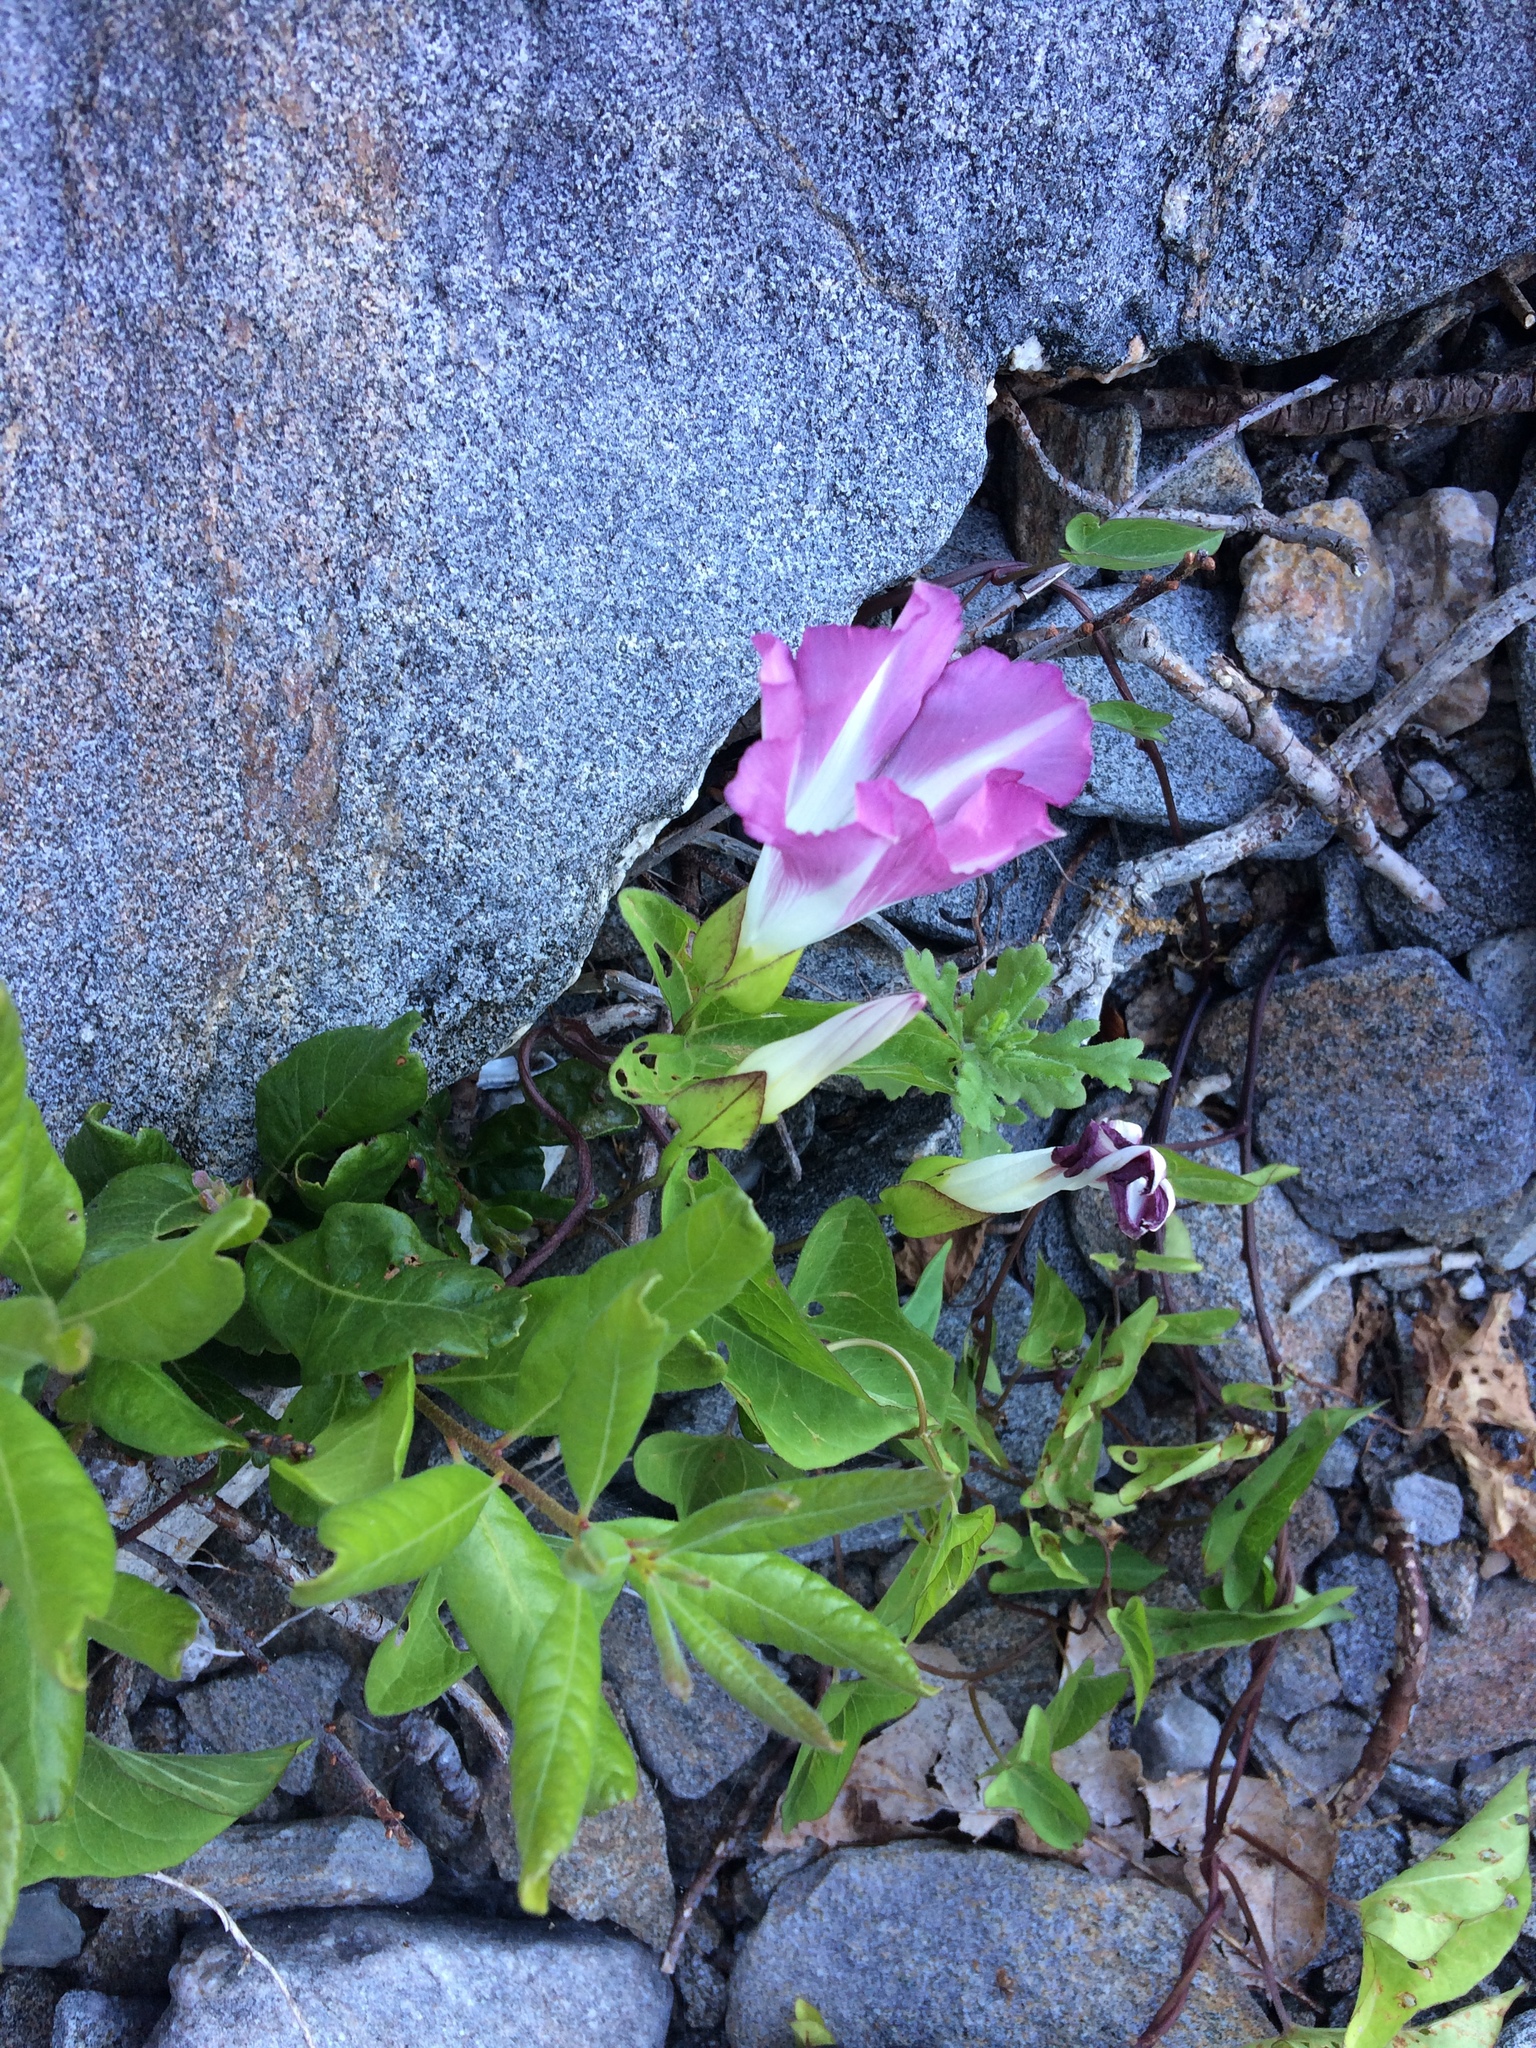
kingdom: Plantae
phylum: Tracheophyta
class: Magnoliopsida
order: Solanales
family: Convolvulaceae
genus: Calystegia
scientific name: Calystegia sepium
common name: Hedge bindweed
